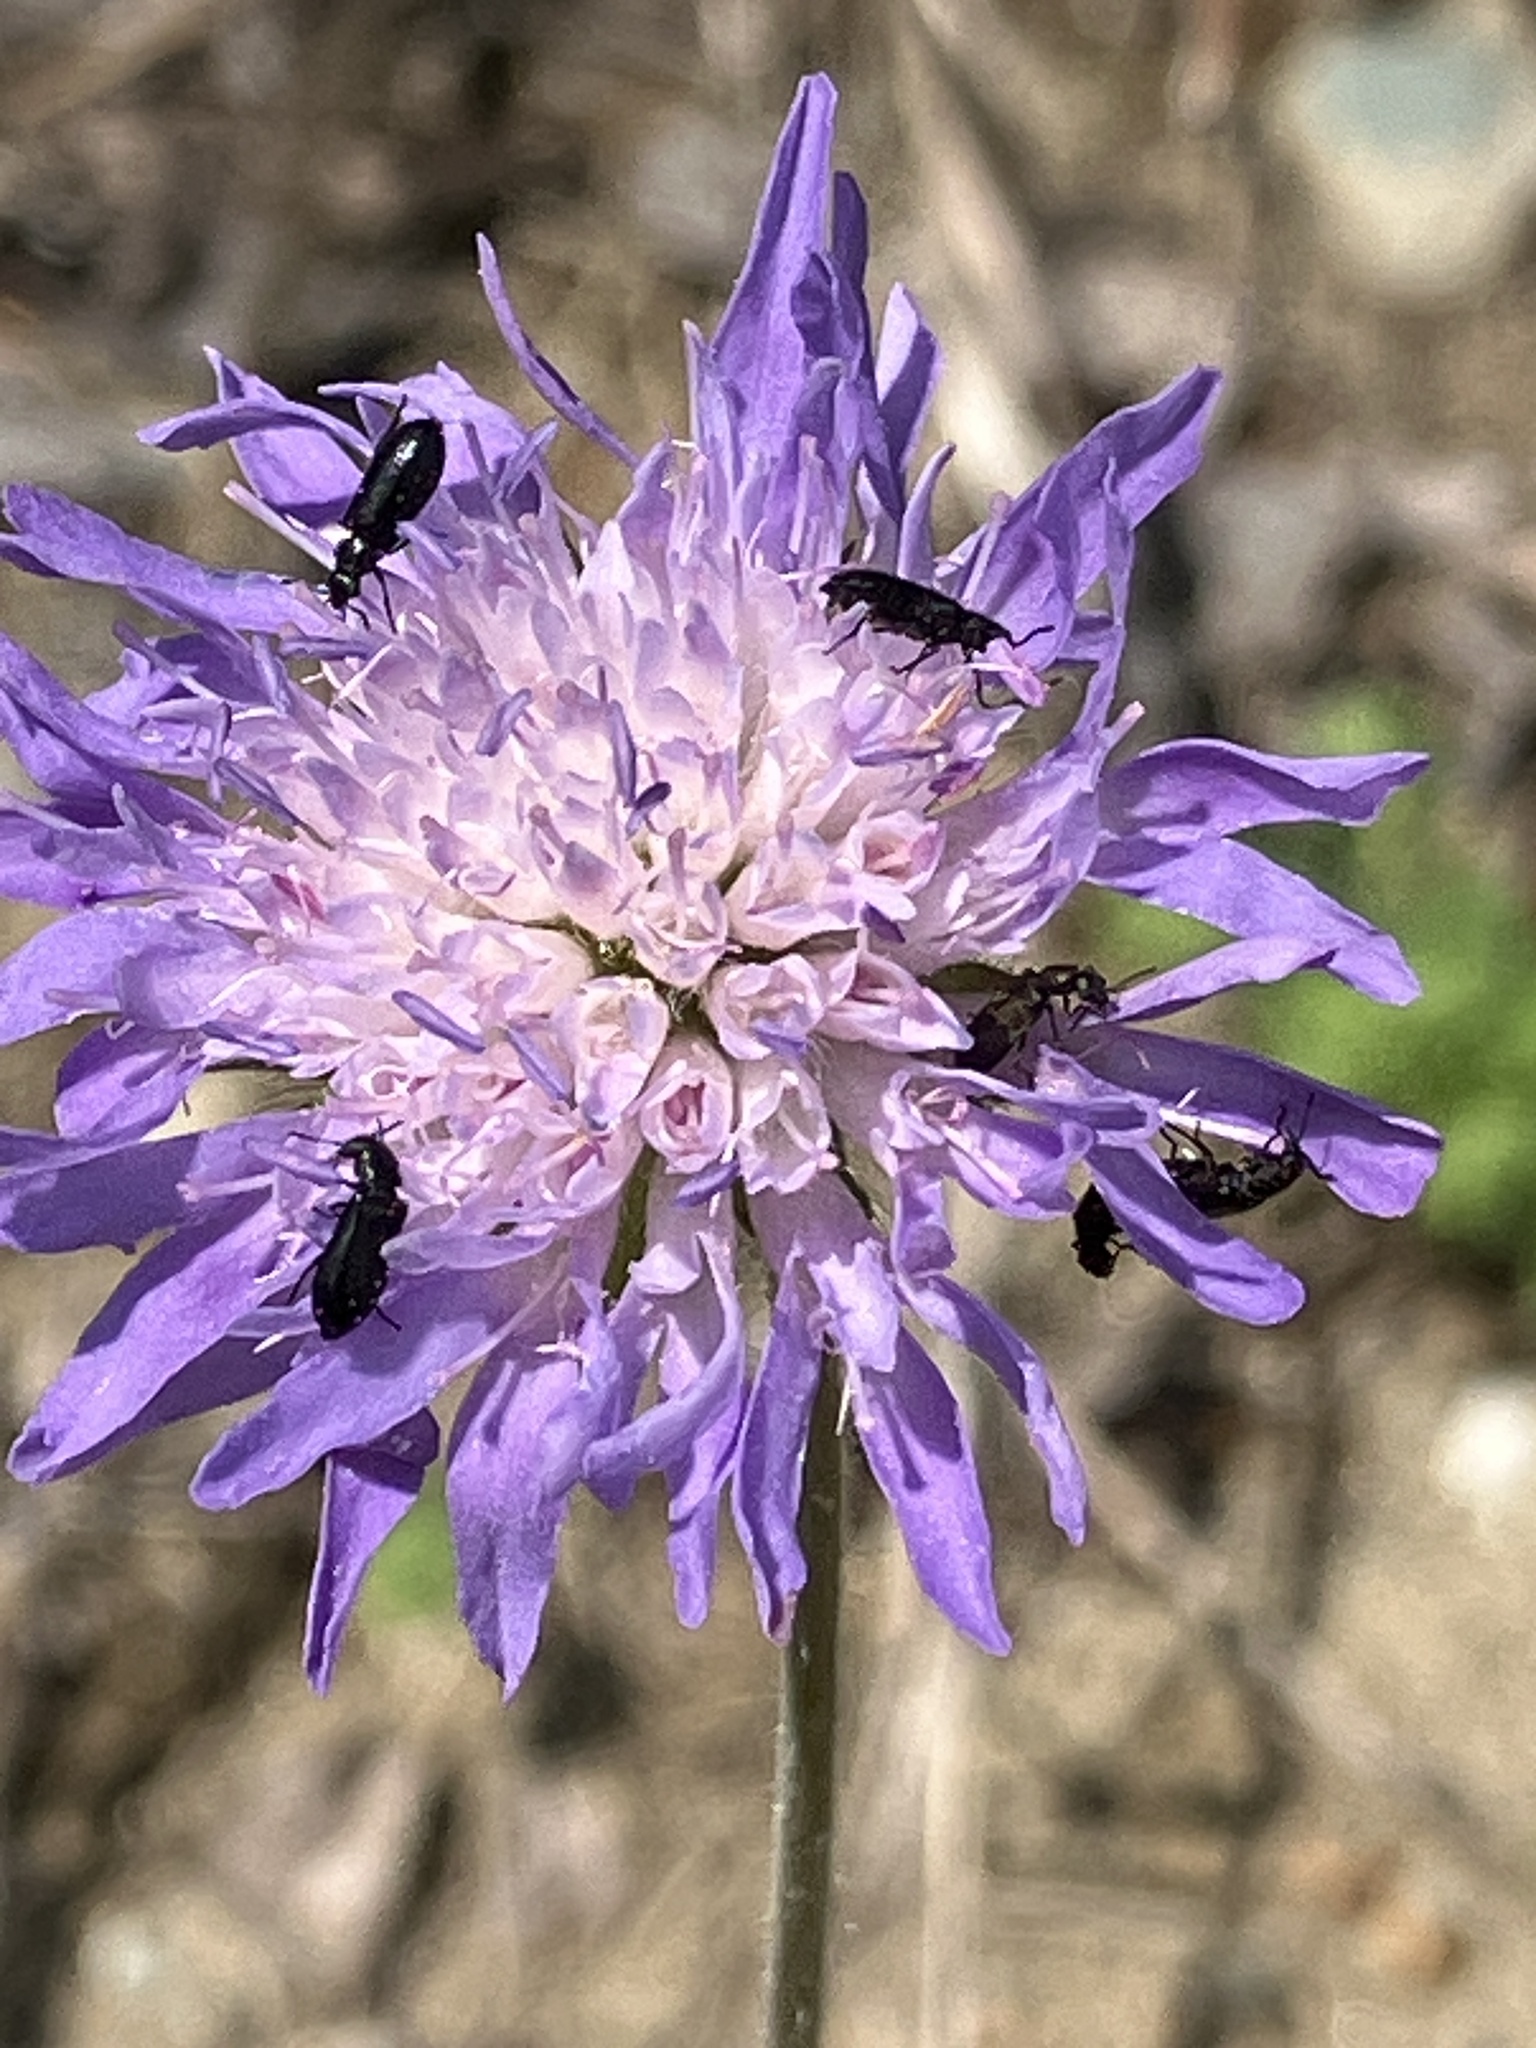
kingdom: Plantae
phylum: Tracheophyta
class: Magnoliopsida
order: Dipsacales
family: Caprifoliaceae
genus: Knautia
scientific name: Knautia arvensis
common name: Field scabiosa
